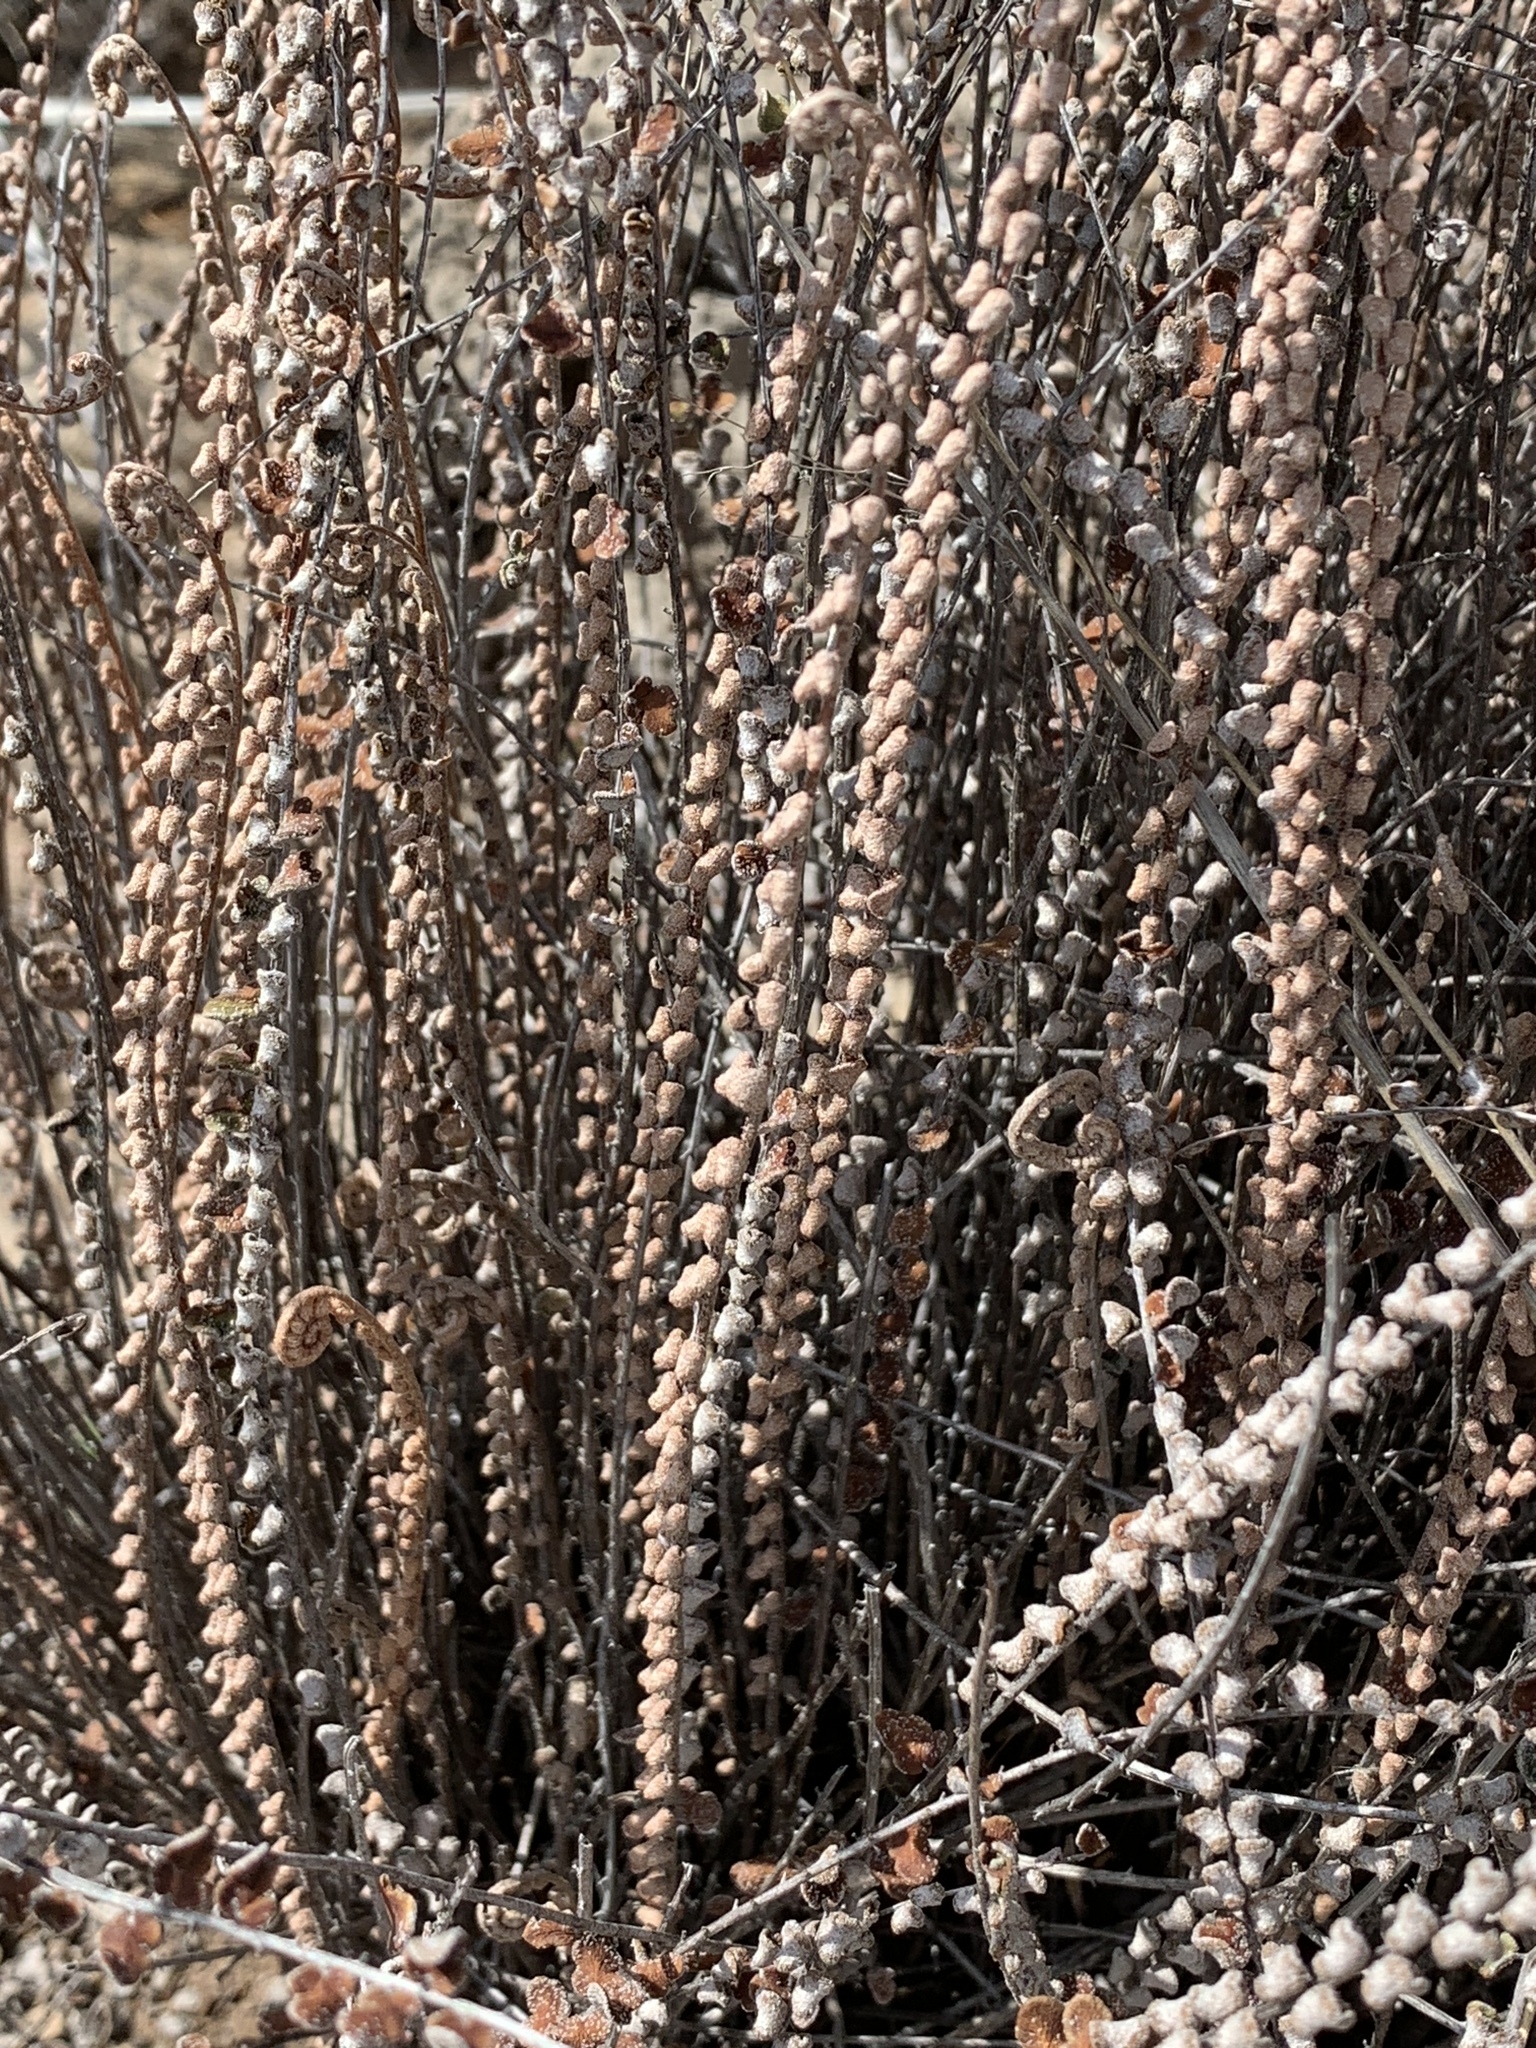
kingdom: Plantae
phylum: Tracheophyta
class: Polypodiopsida
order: Polypodiales
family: Pteridaceae
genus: Astrolepis
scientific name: Astrolepis cochisensis
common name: Scaly cloak fern
